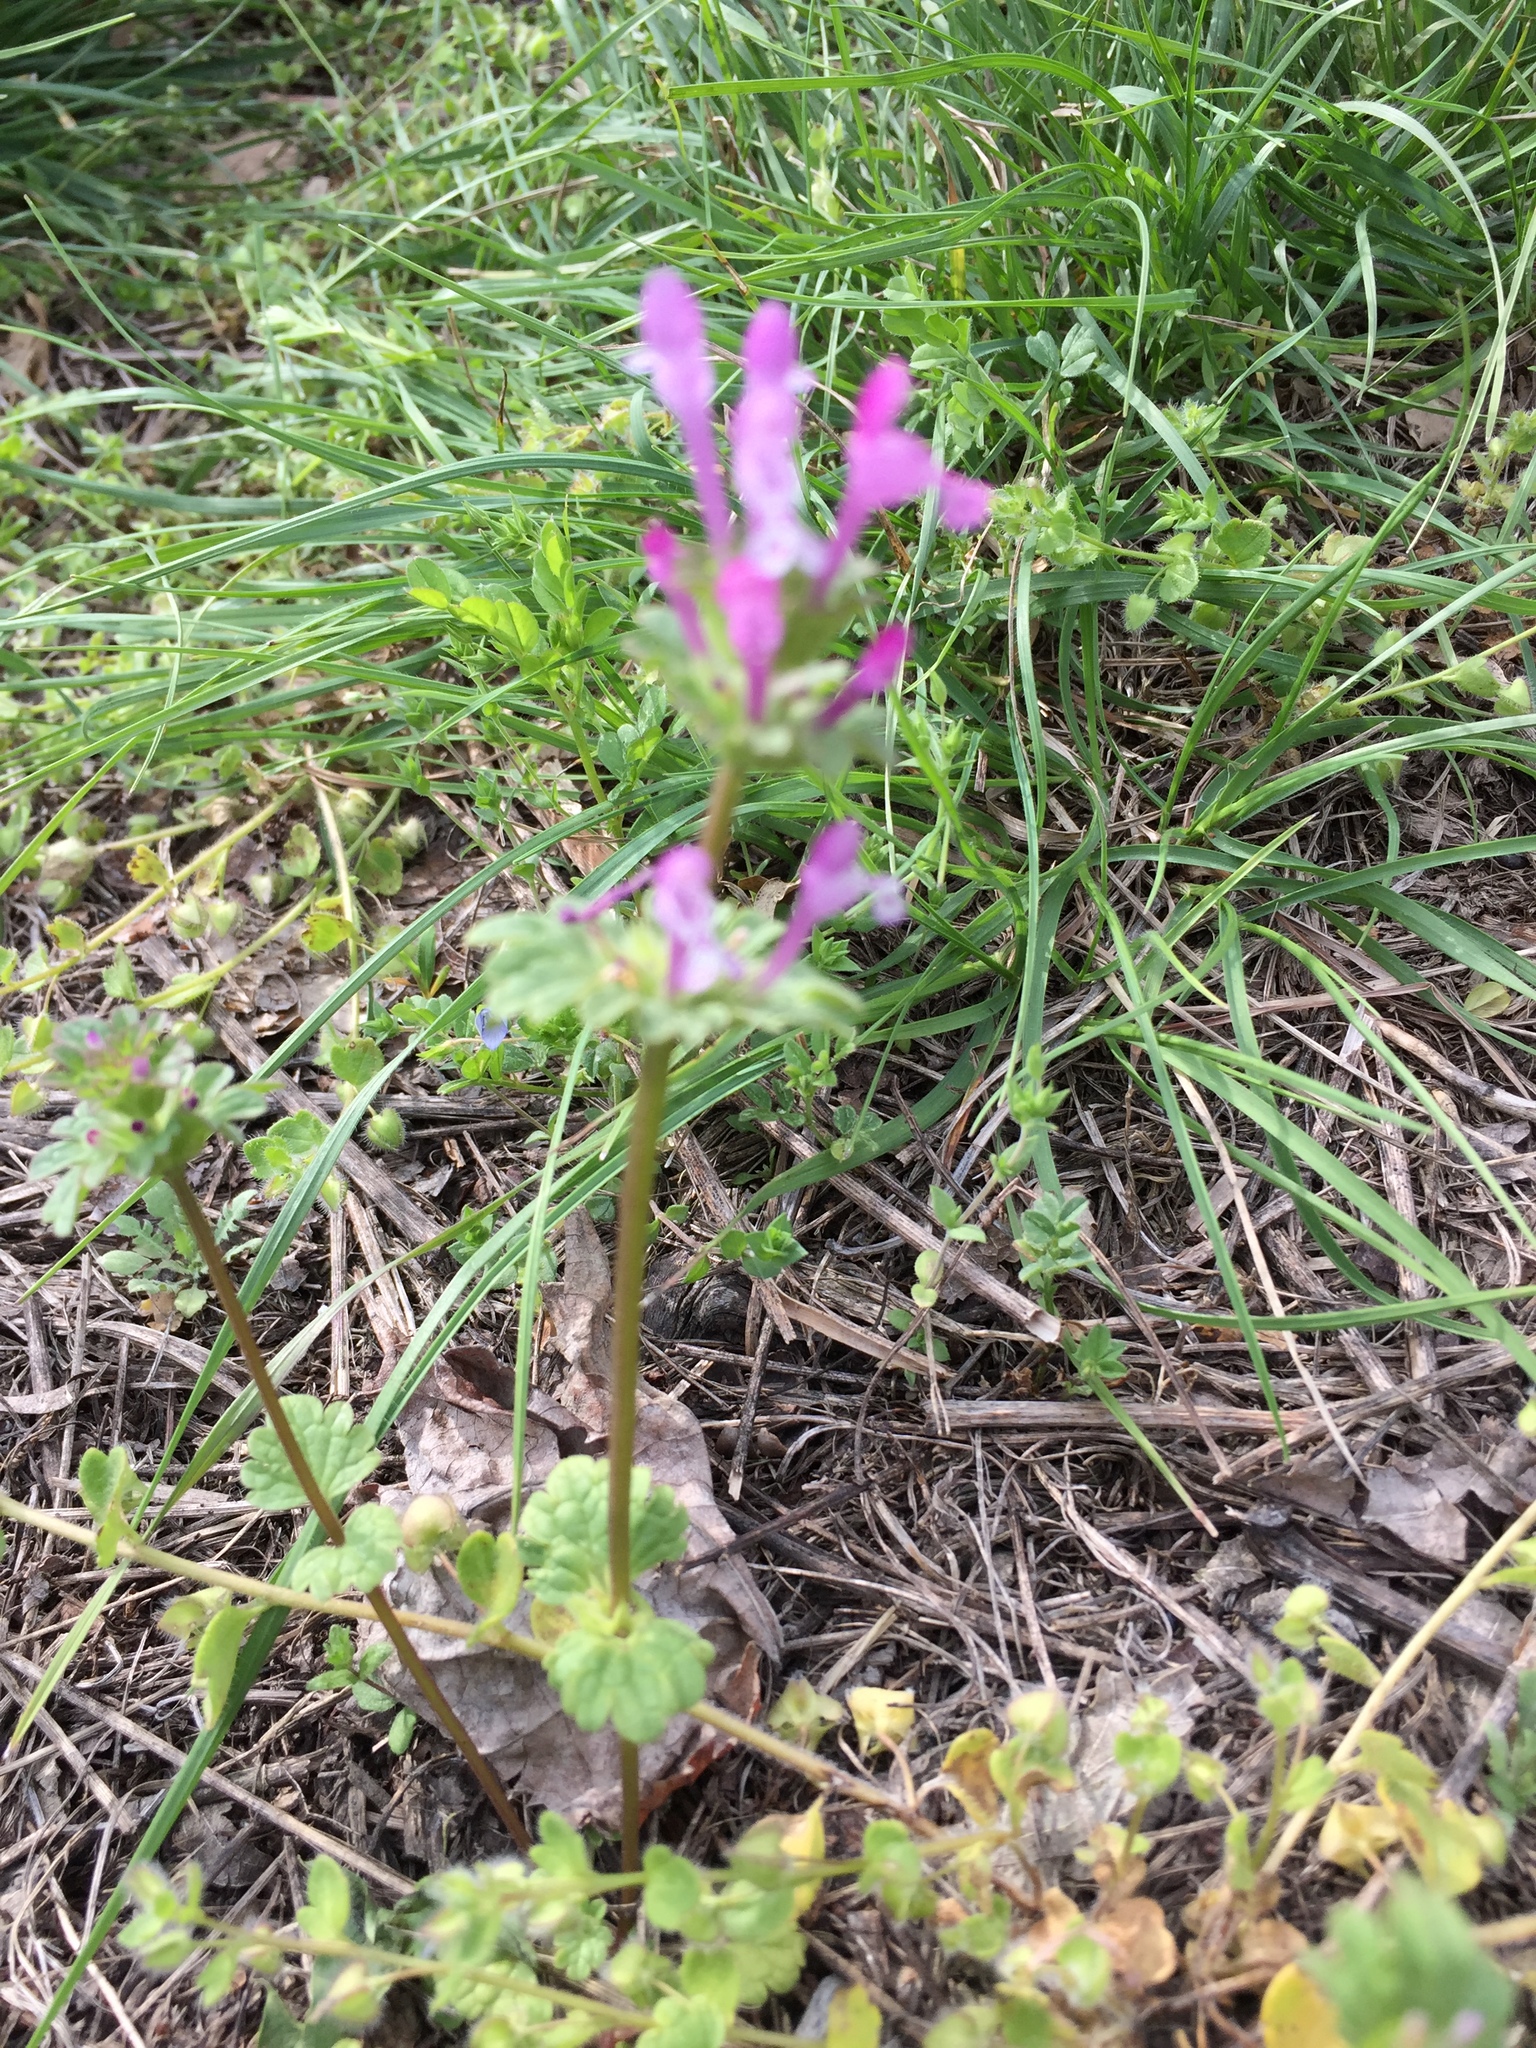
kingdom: Plantae
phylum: Tracheophyta
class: Magnoliopsida
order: Lamiales
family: Lamiaceae
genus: Lamium
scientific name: Lamium amplexicaule
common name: Henbit dead-nettle
